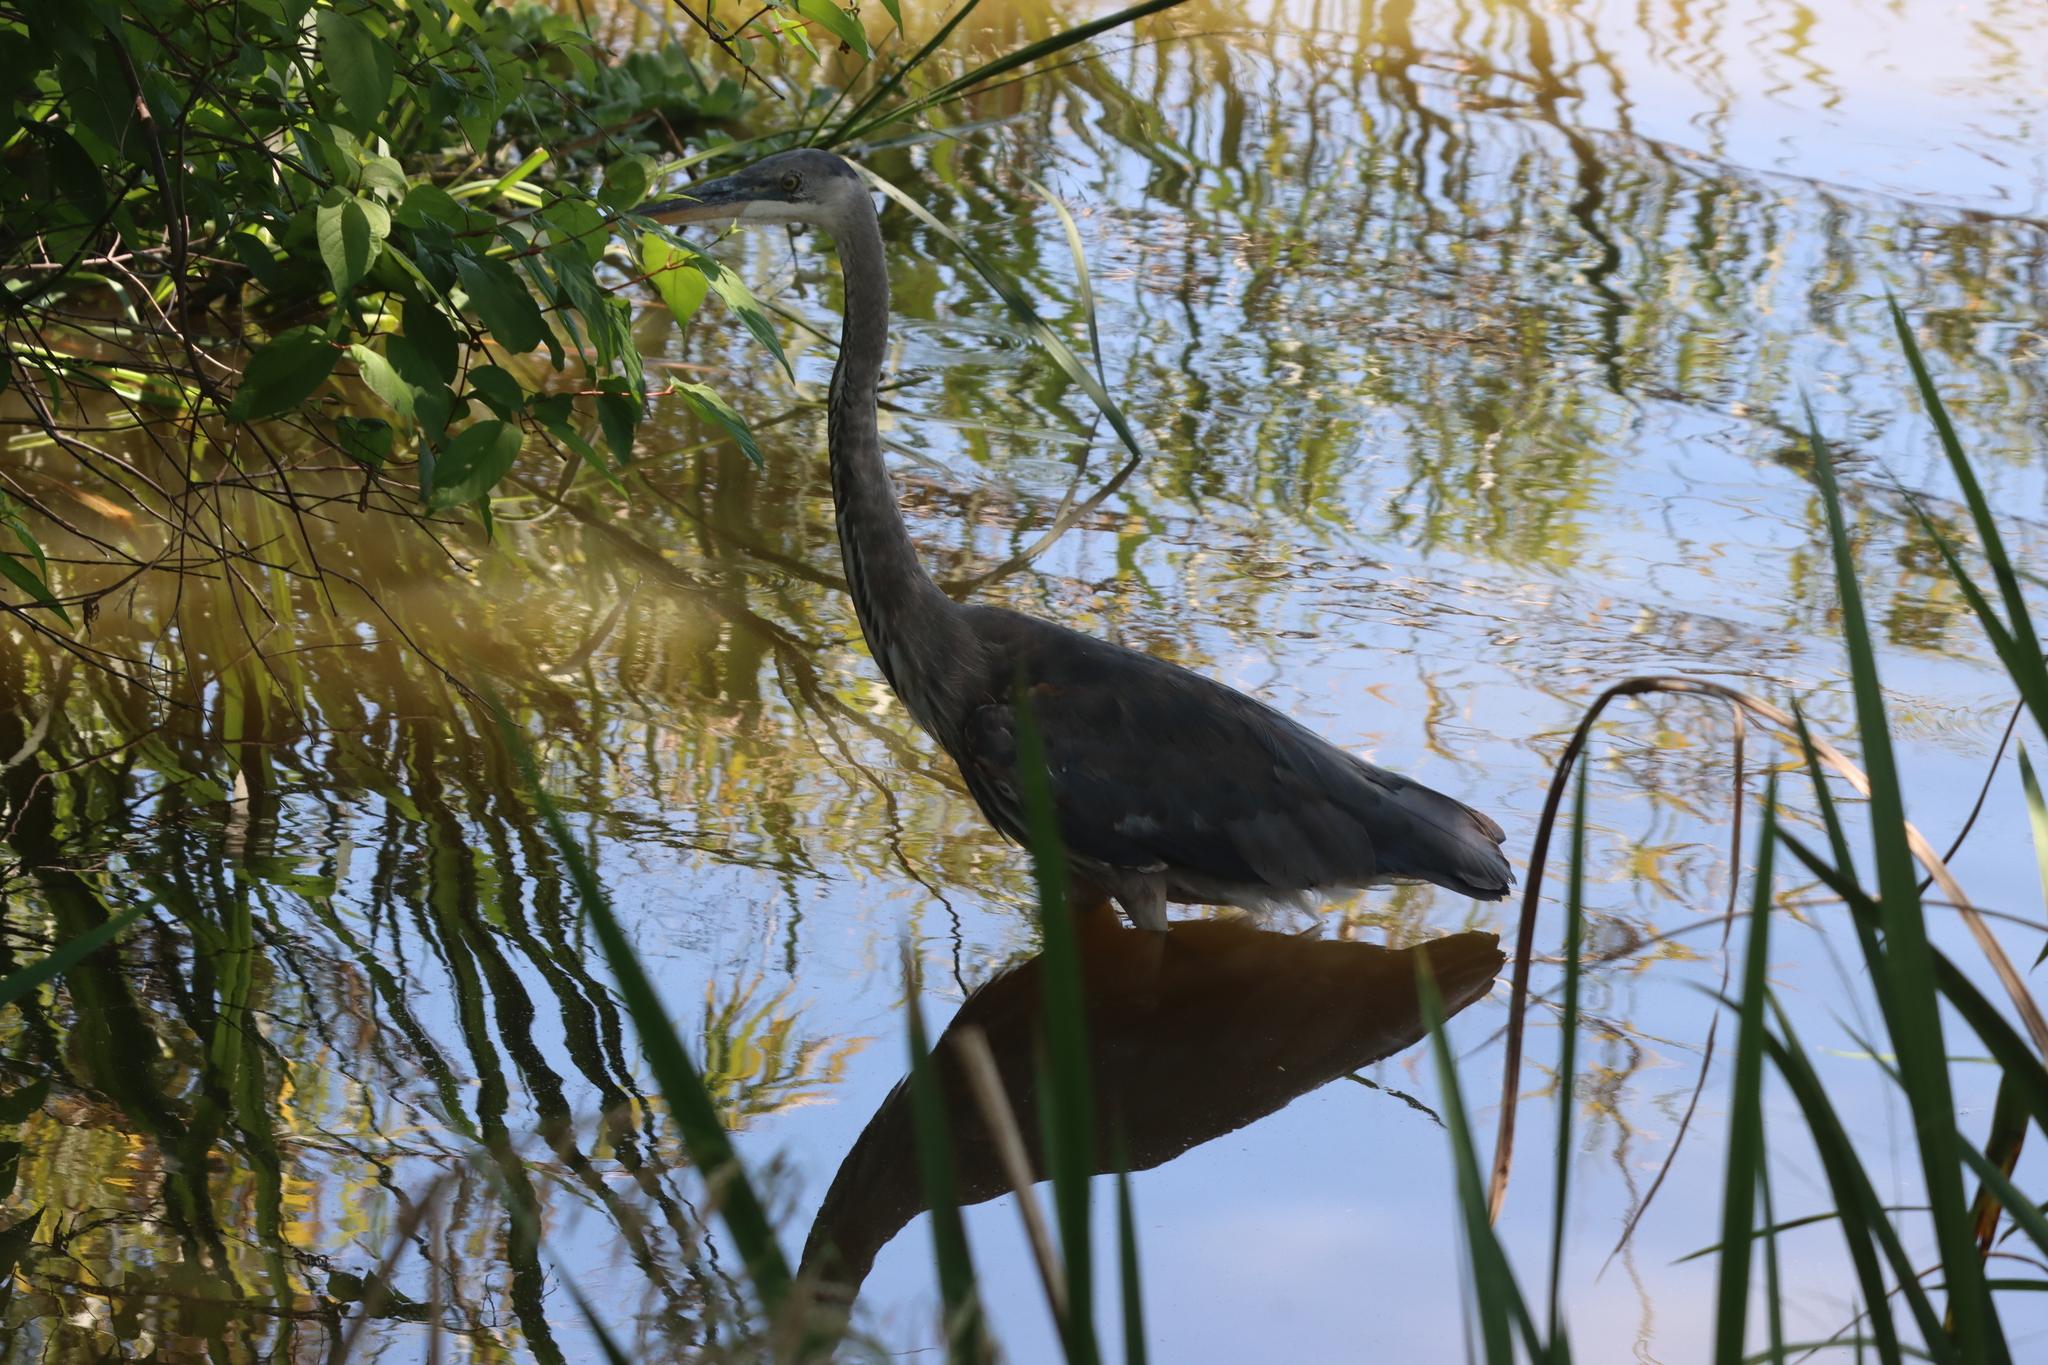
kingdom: Animalia
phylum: Chordata
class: Aves
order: Pelecaniformes
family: Ardeidae
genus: Ardea
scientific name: Ardea herodias
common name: Great blue heron
